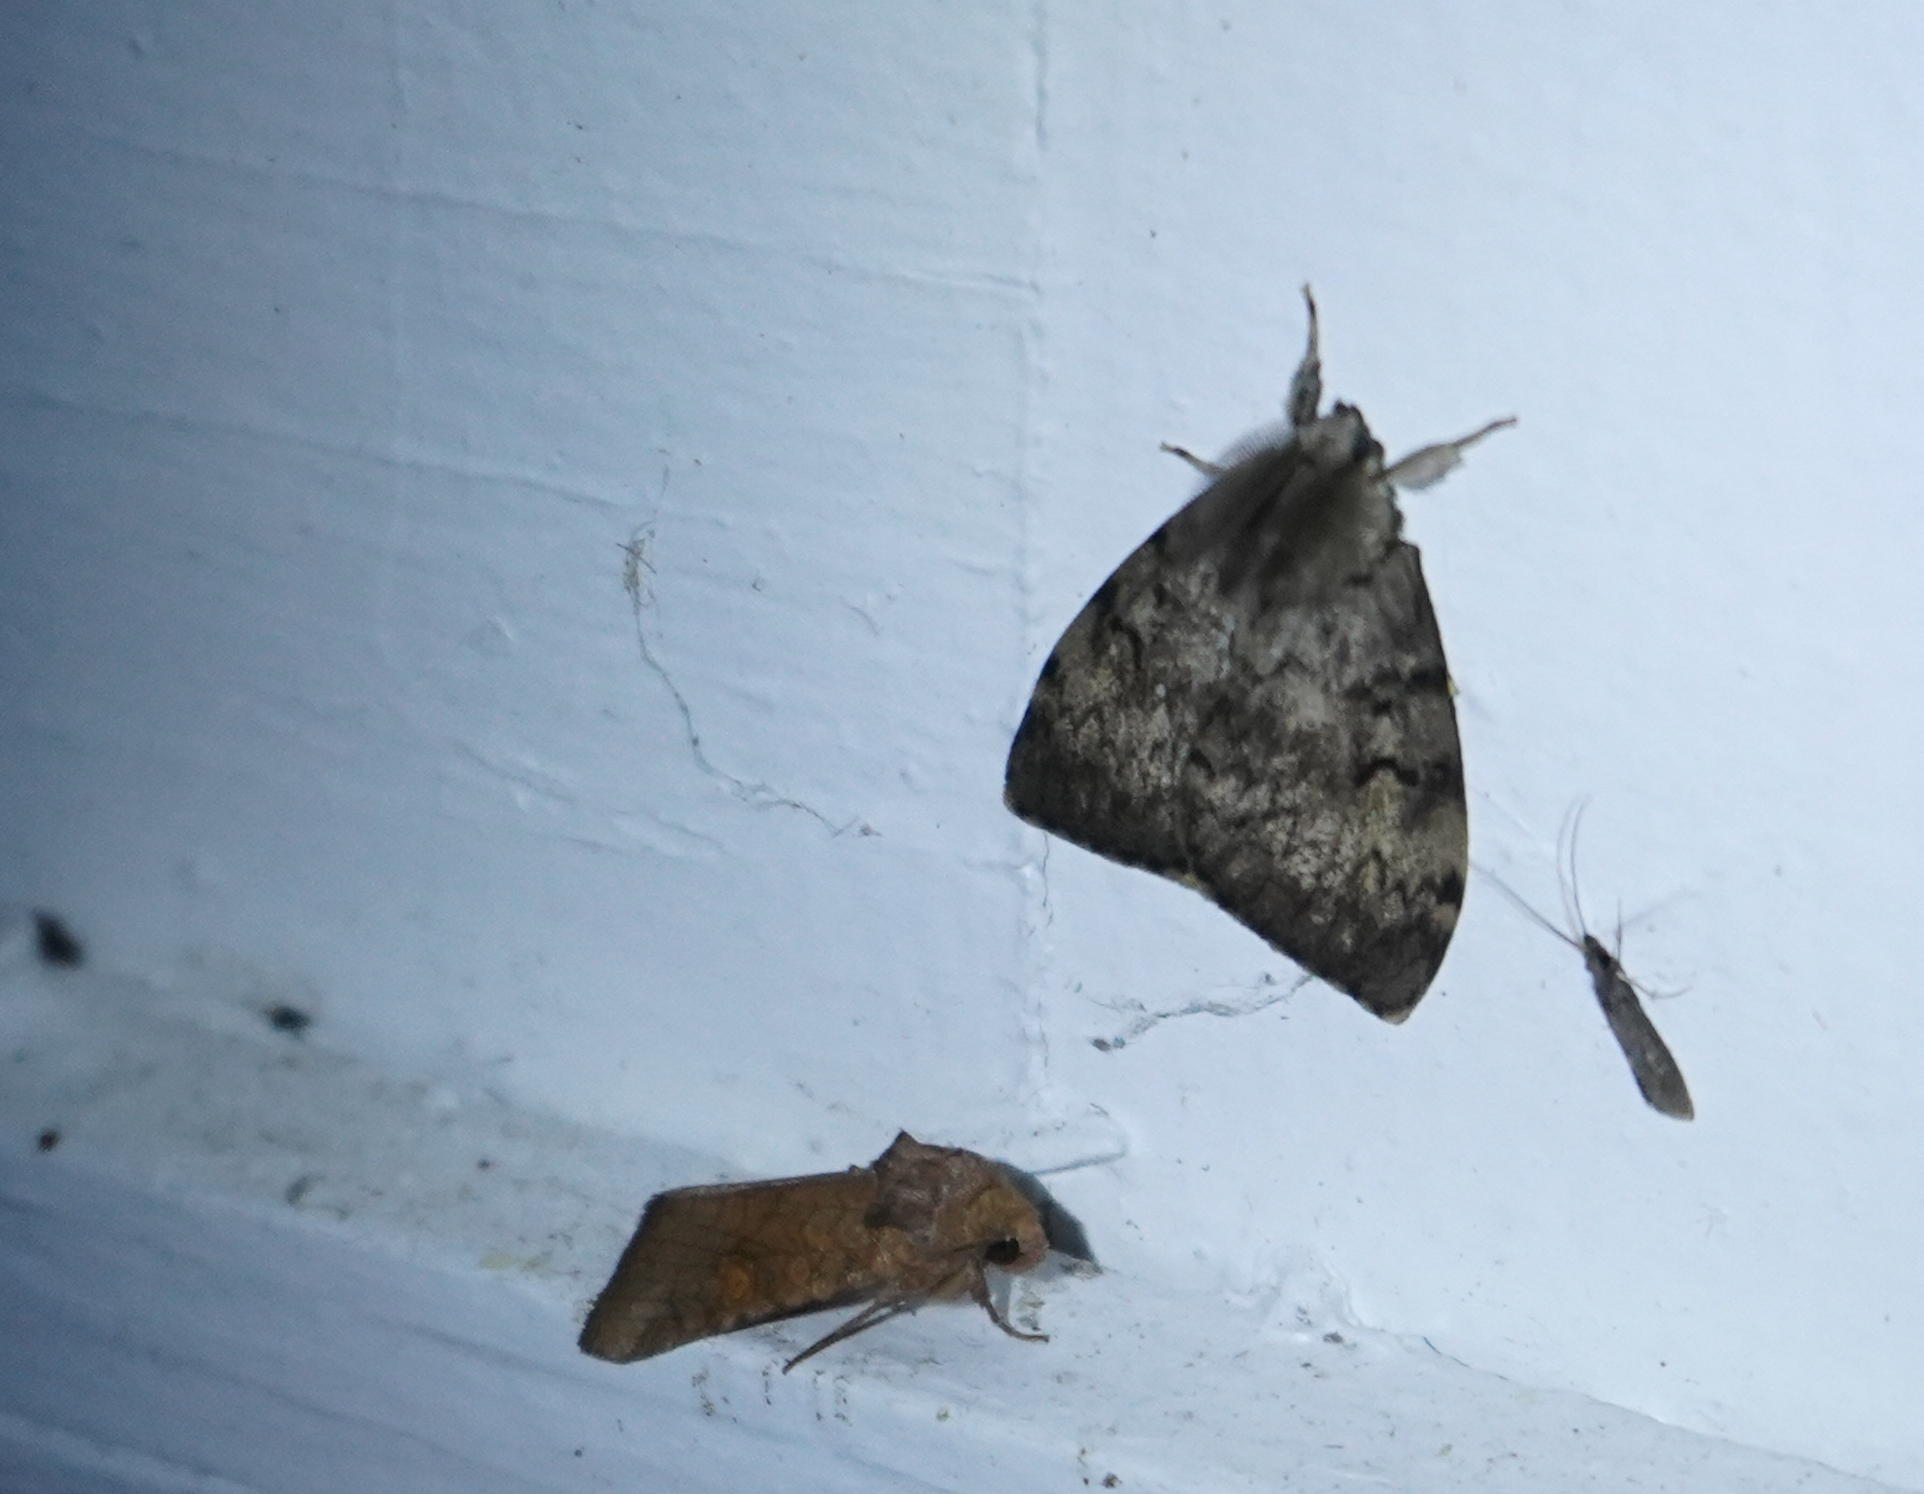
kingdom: Animalia
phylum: Arthropoda
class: Insecta
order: Lepidoptera
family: Erebidae
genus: Lymantria
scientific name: Lymantria dispar
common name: Gypsy moth
